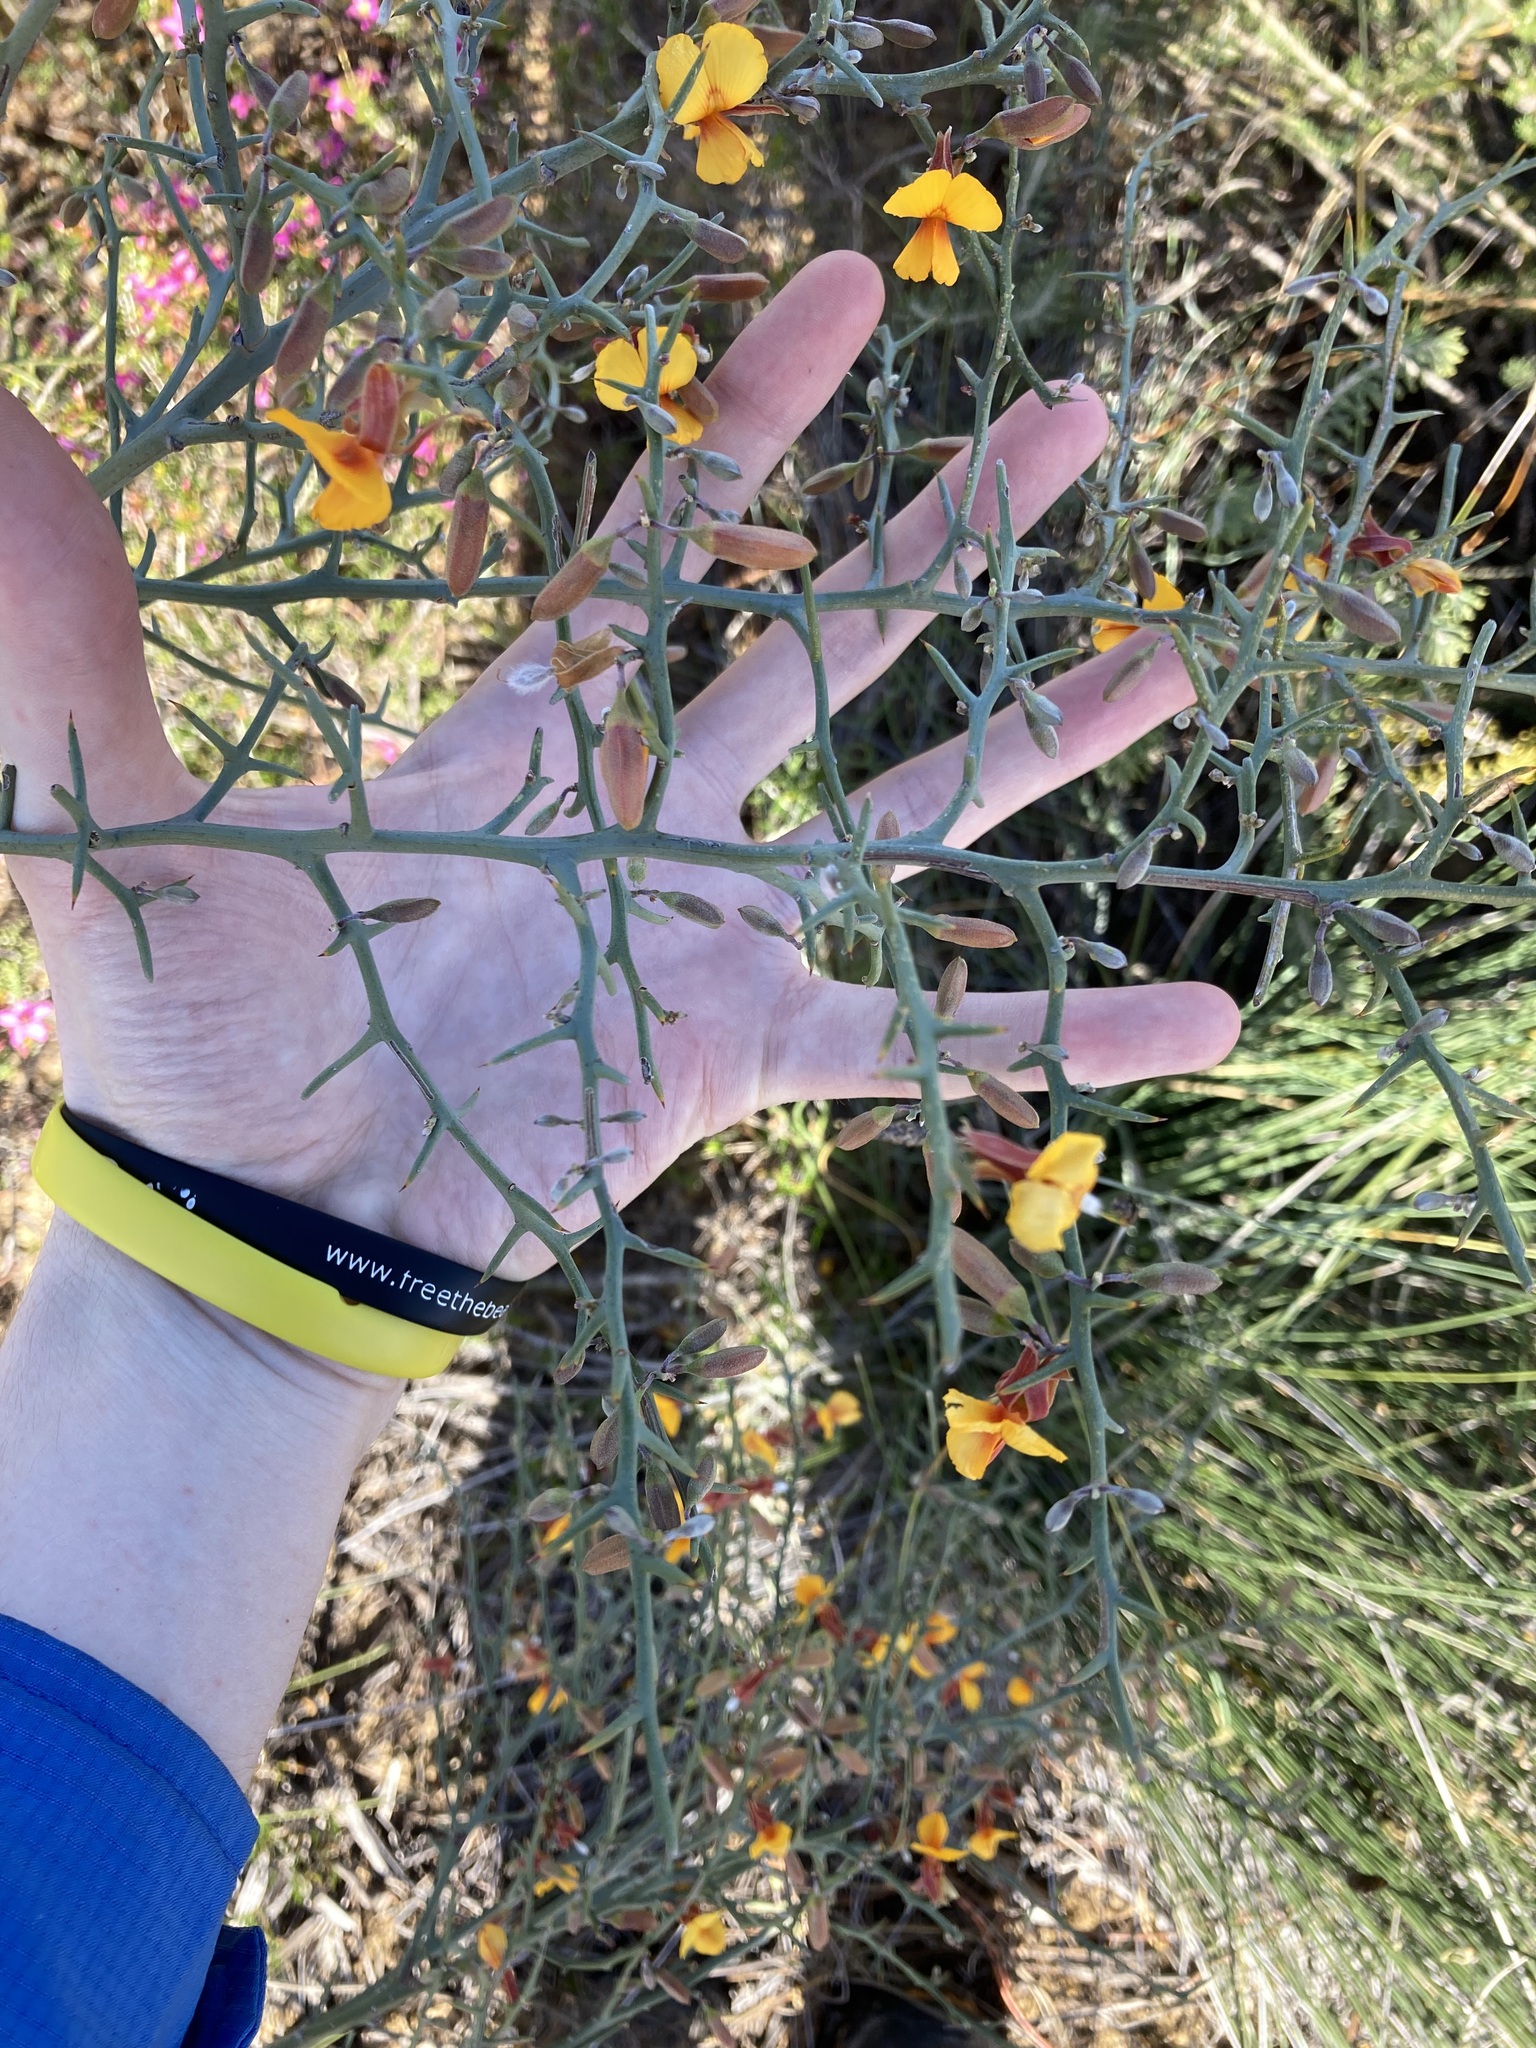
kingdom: Plantae
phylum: Tracheophyta
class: Magnoliopsida
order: Fabales
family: Fabaceae
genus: Jacksonia
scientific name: Jacksonia rigida
